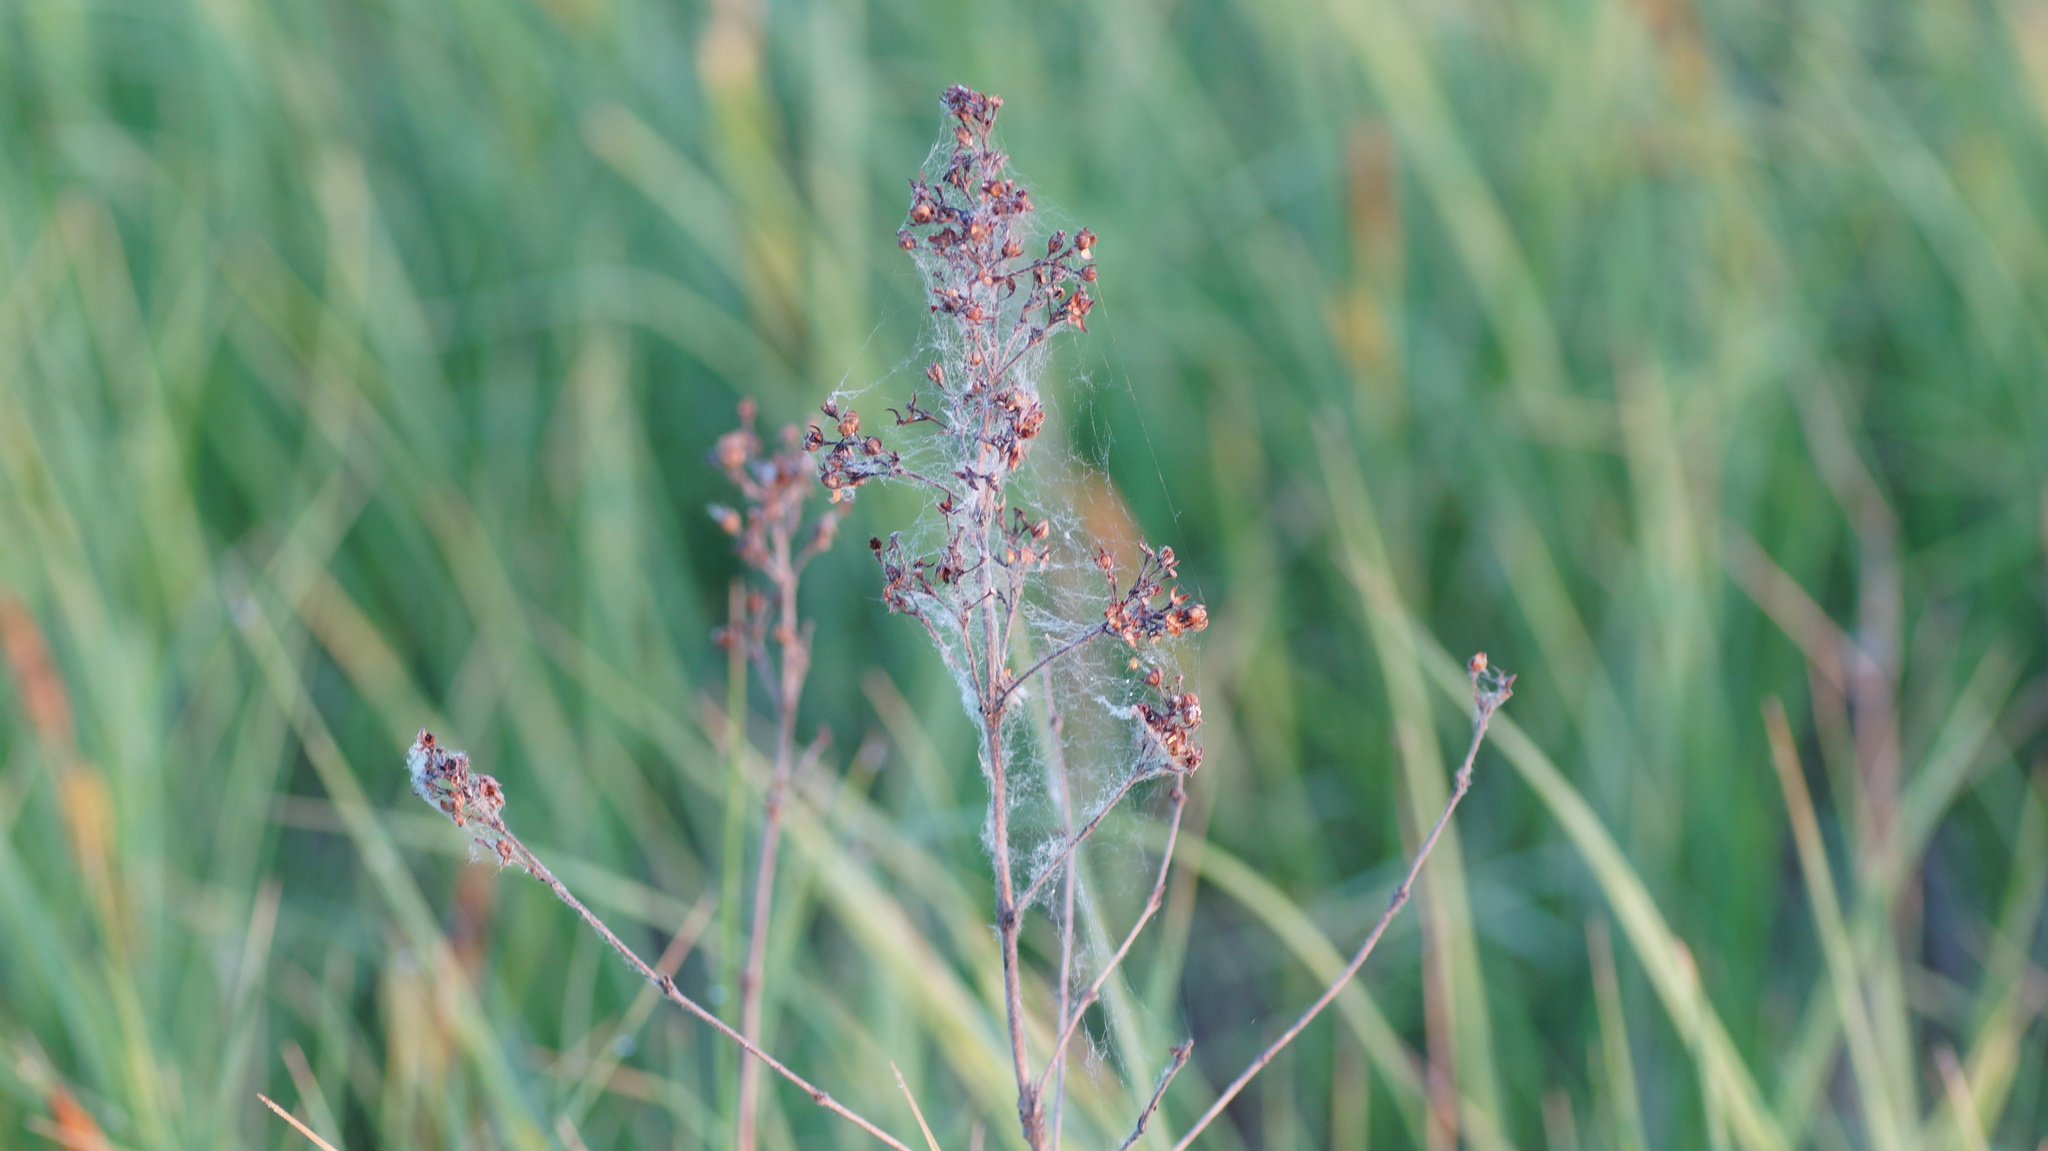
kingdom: Plantae
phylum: Tracheophyta
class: Magnoliopsida
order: Ericales
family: Primulaceae
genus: Lysimachia
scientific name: Lysimachia vulgaris
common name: Yellow loosestrife
